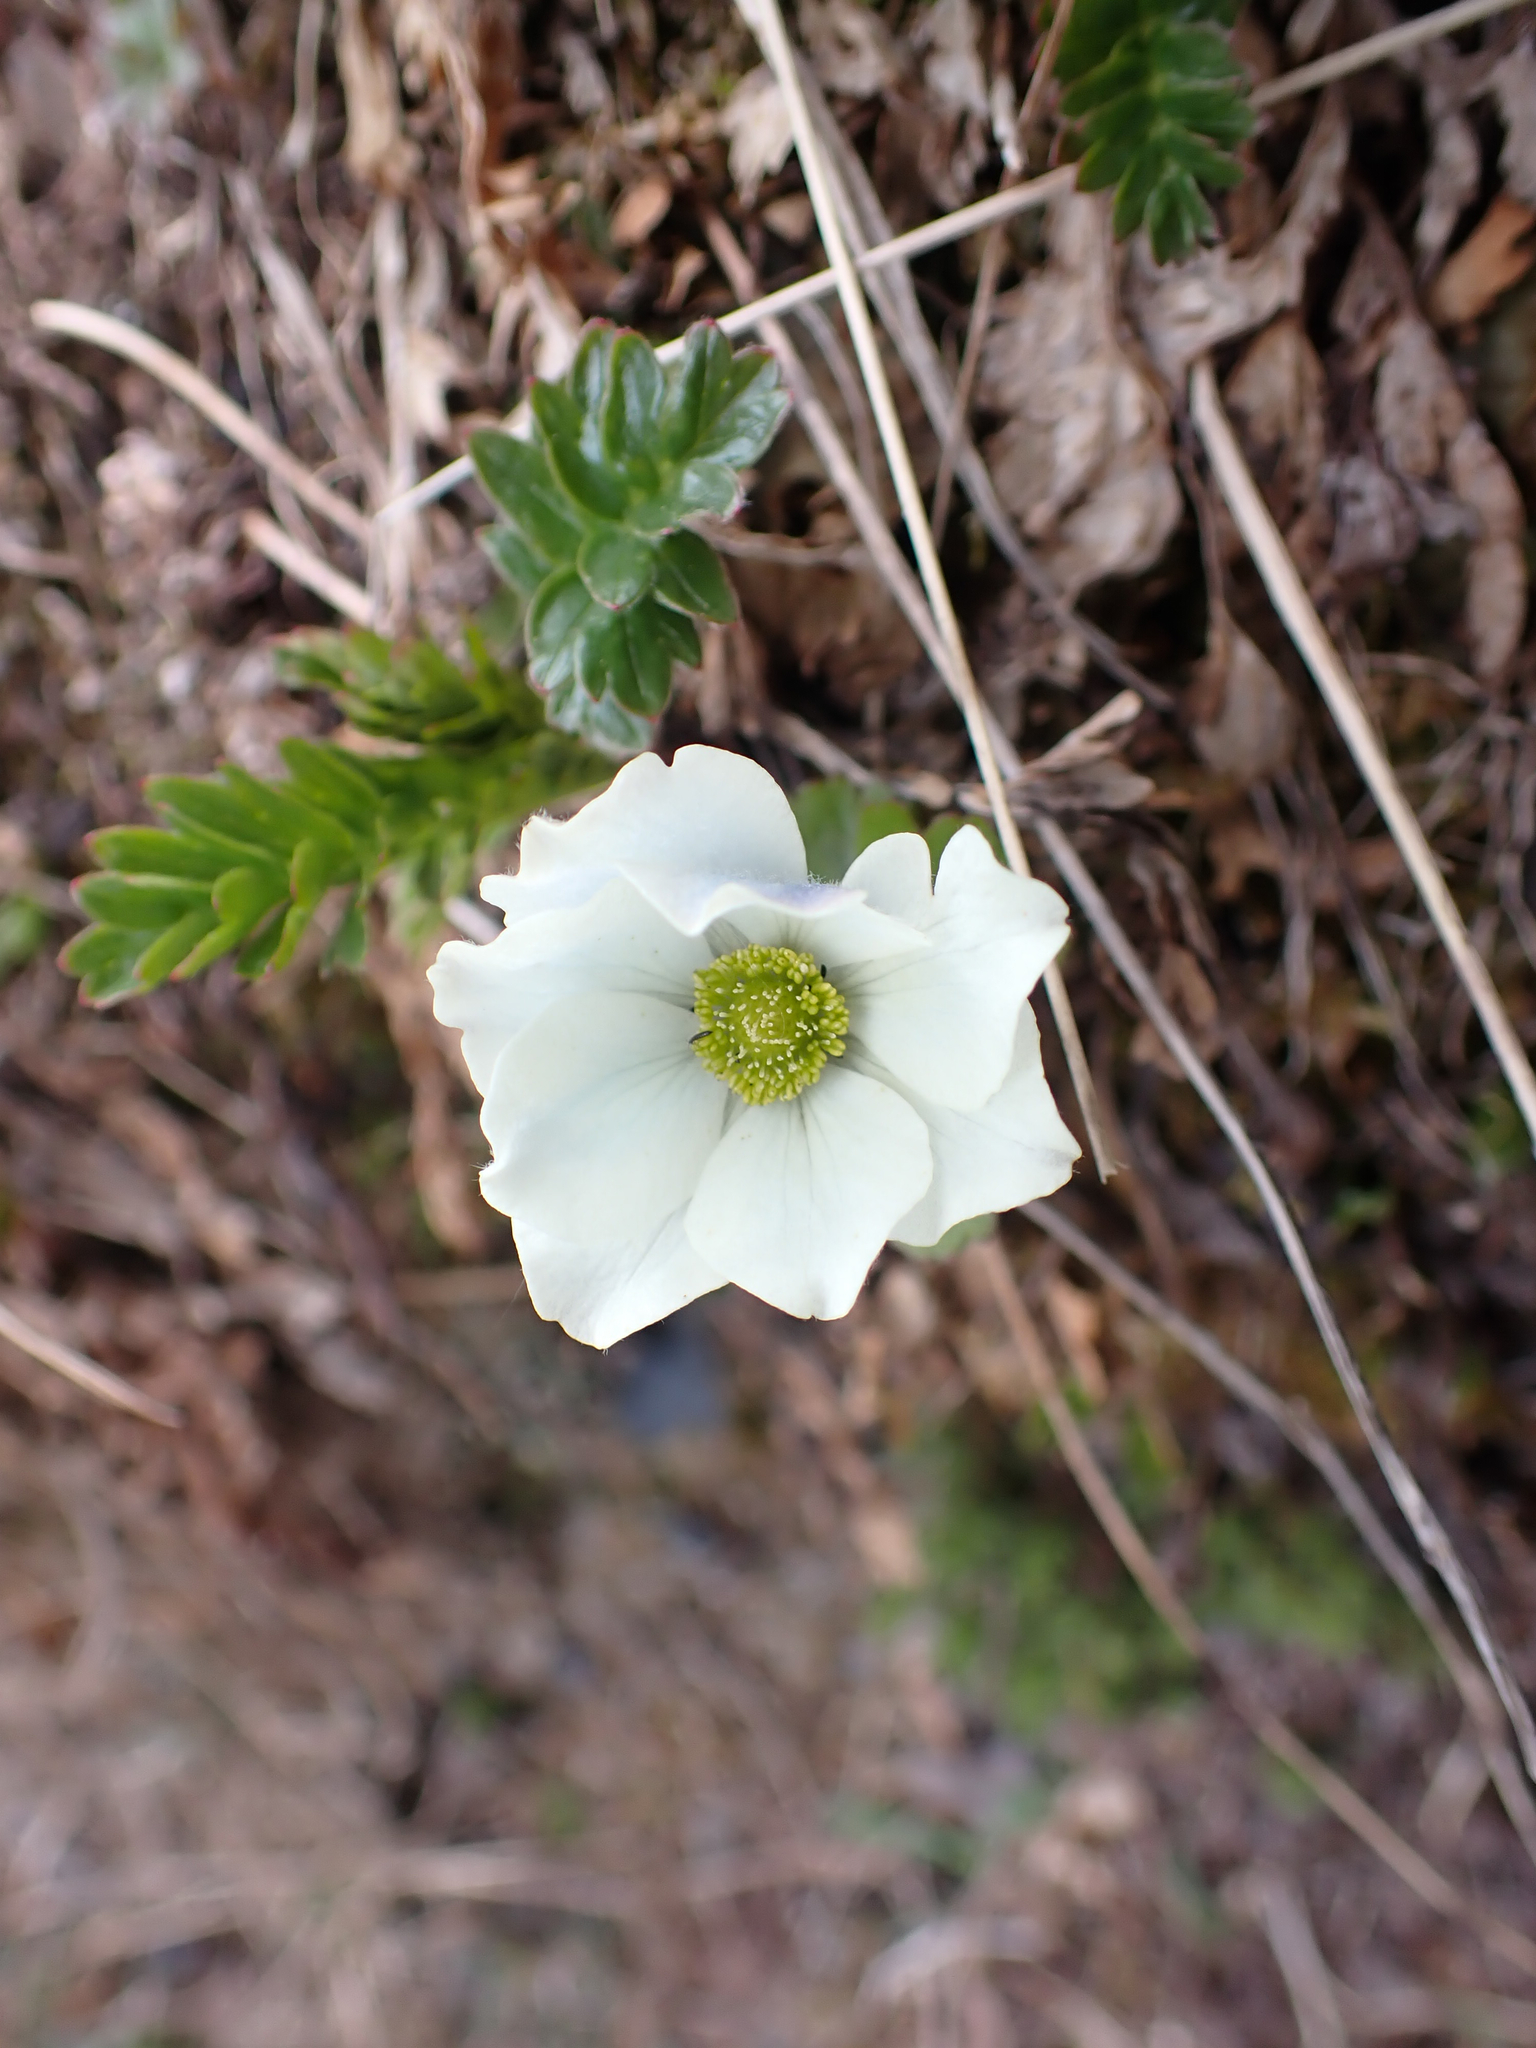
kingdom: Plantae
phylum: Tracheophyta
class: Magnoliopsida
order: Ranunculales
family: Ranunculaceae
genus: Anemone
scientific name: Anemone parviflora
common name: Northern anemone
